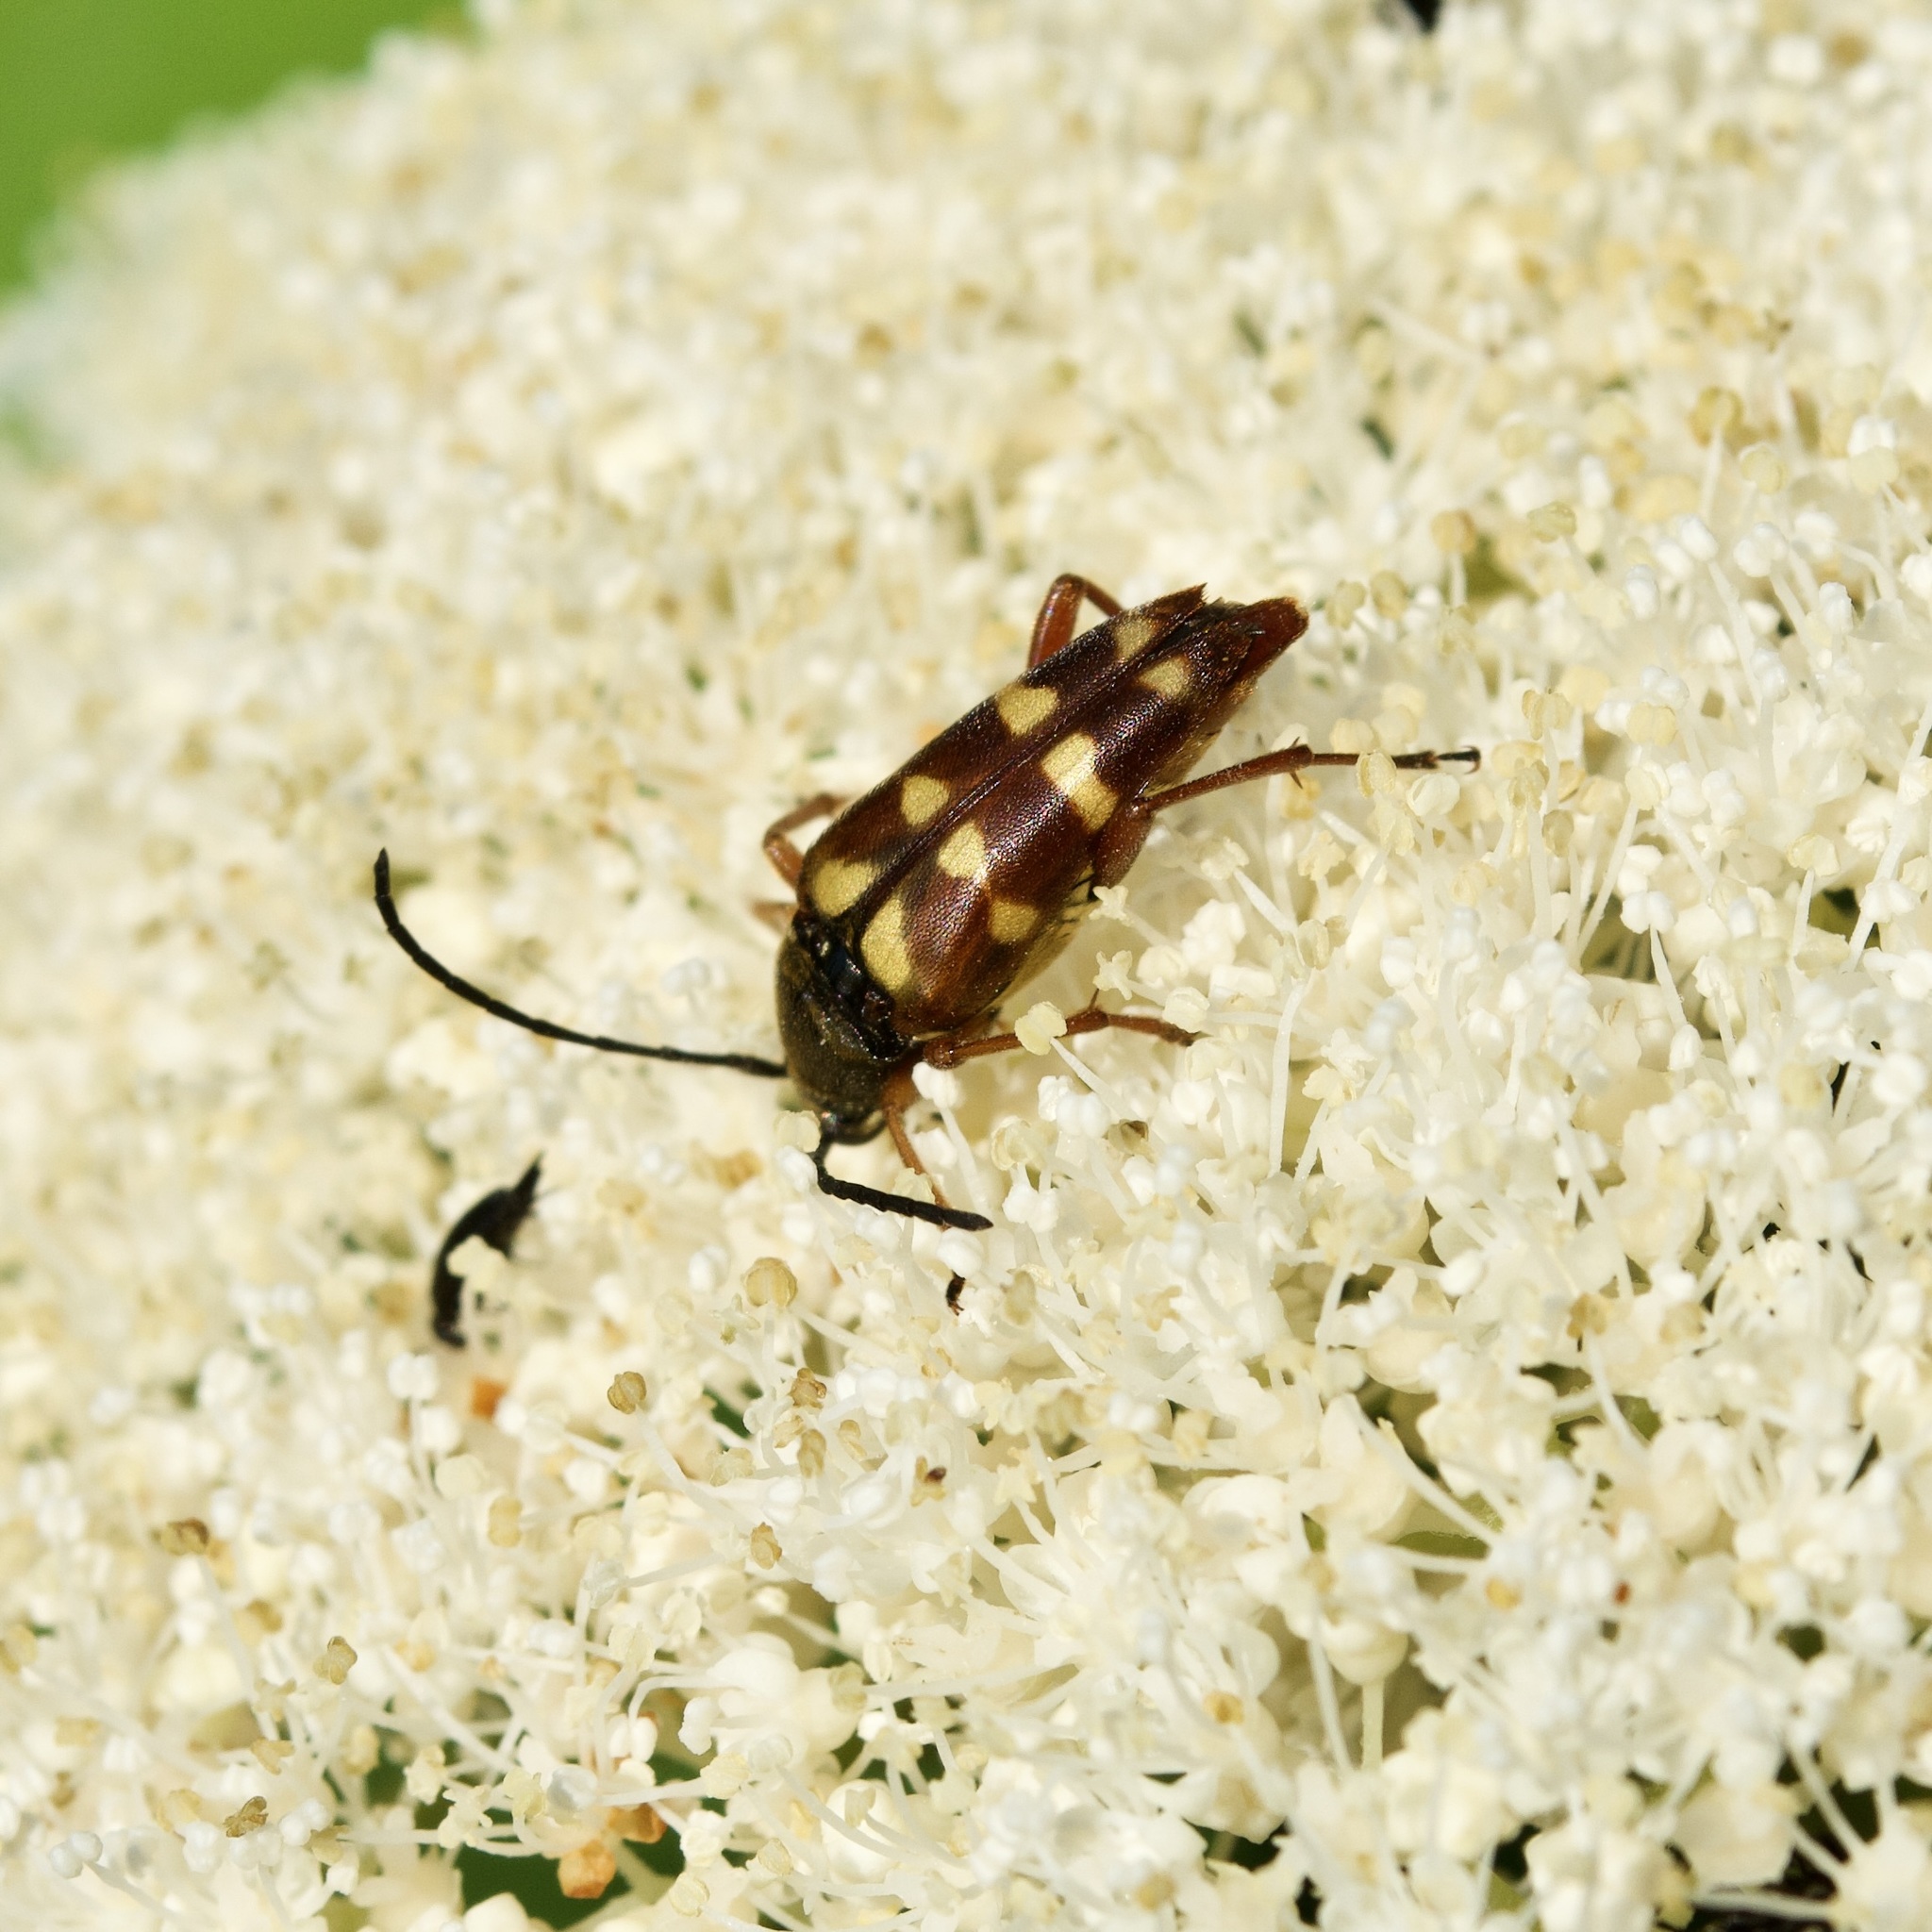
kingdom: Animalia
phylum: Arthropoda
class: Insecta
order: Coleoptera
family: Cerambycidae
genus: Typocerus
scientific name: Typocerus velutinus
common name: Banded longhorn beetle
